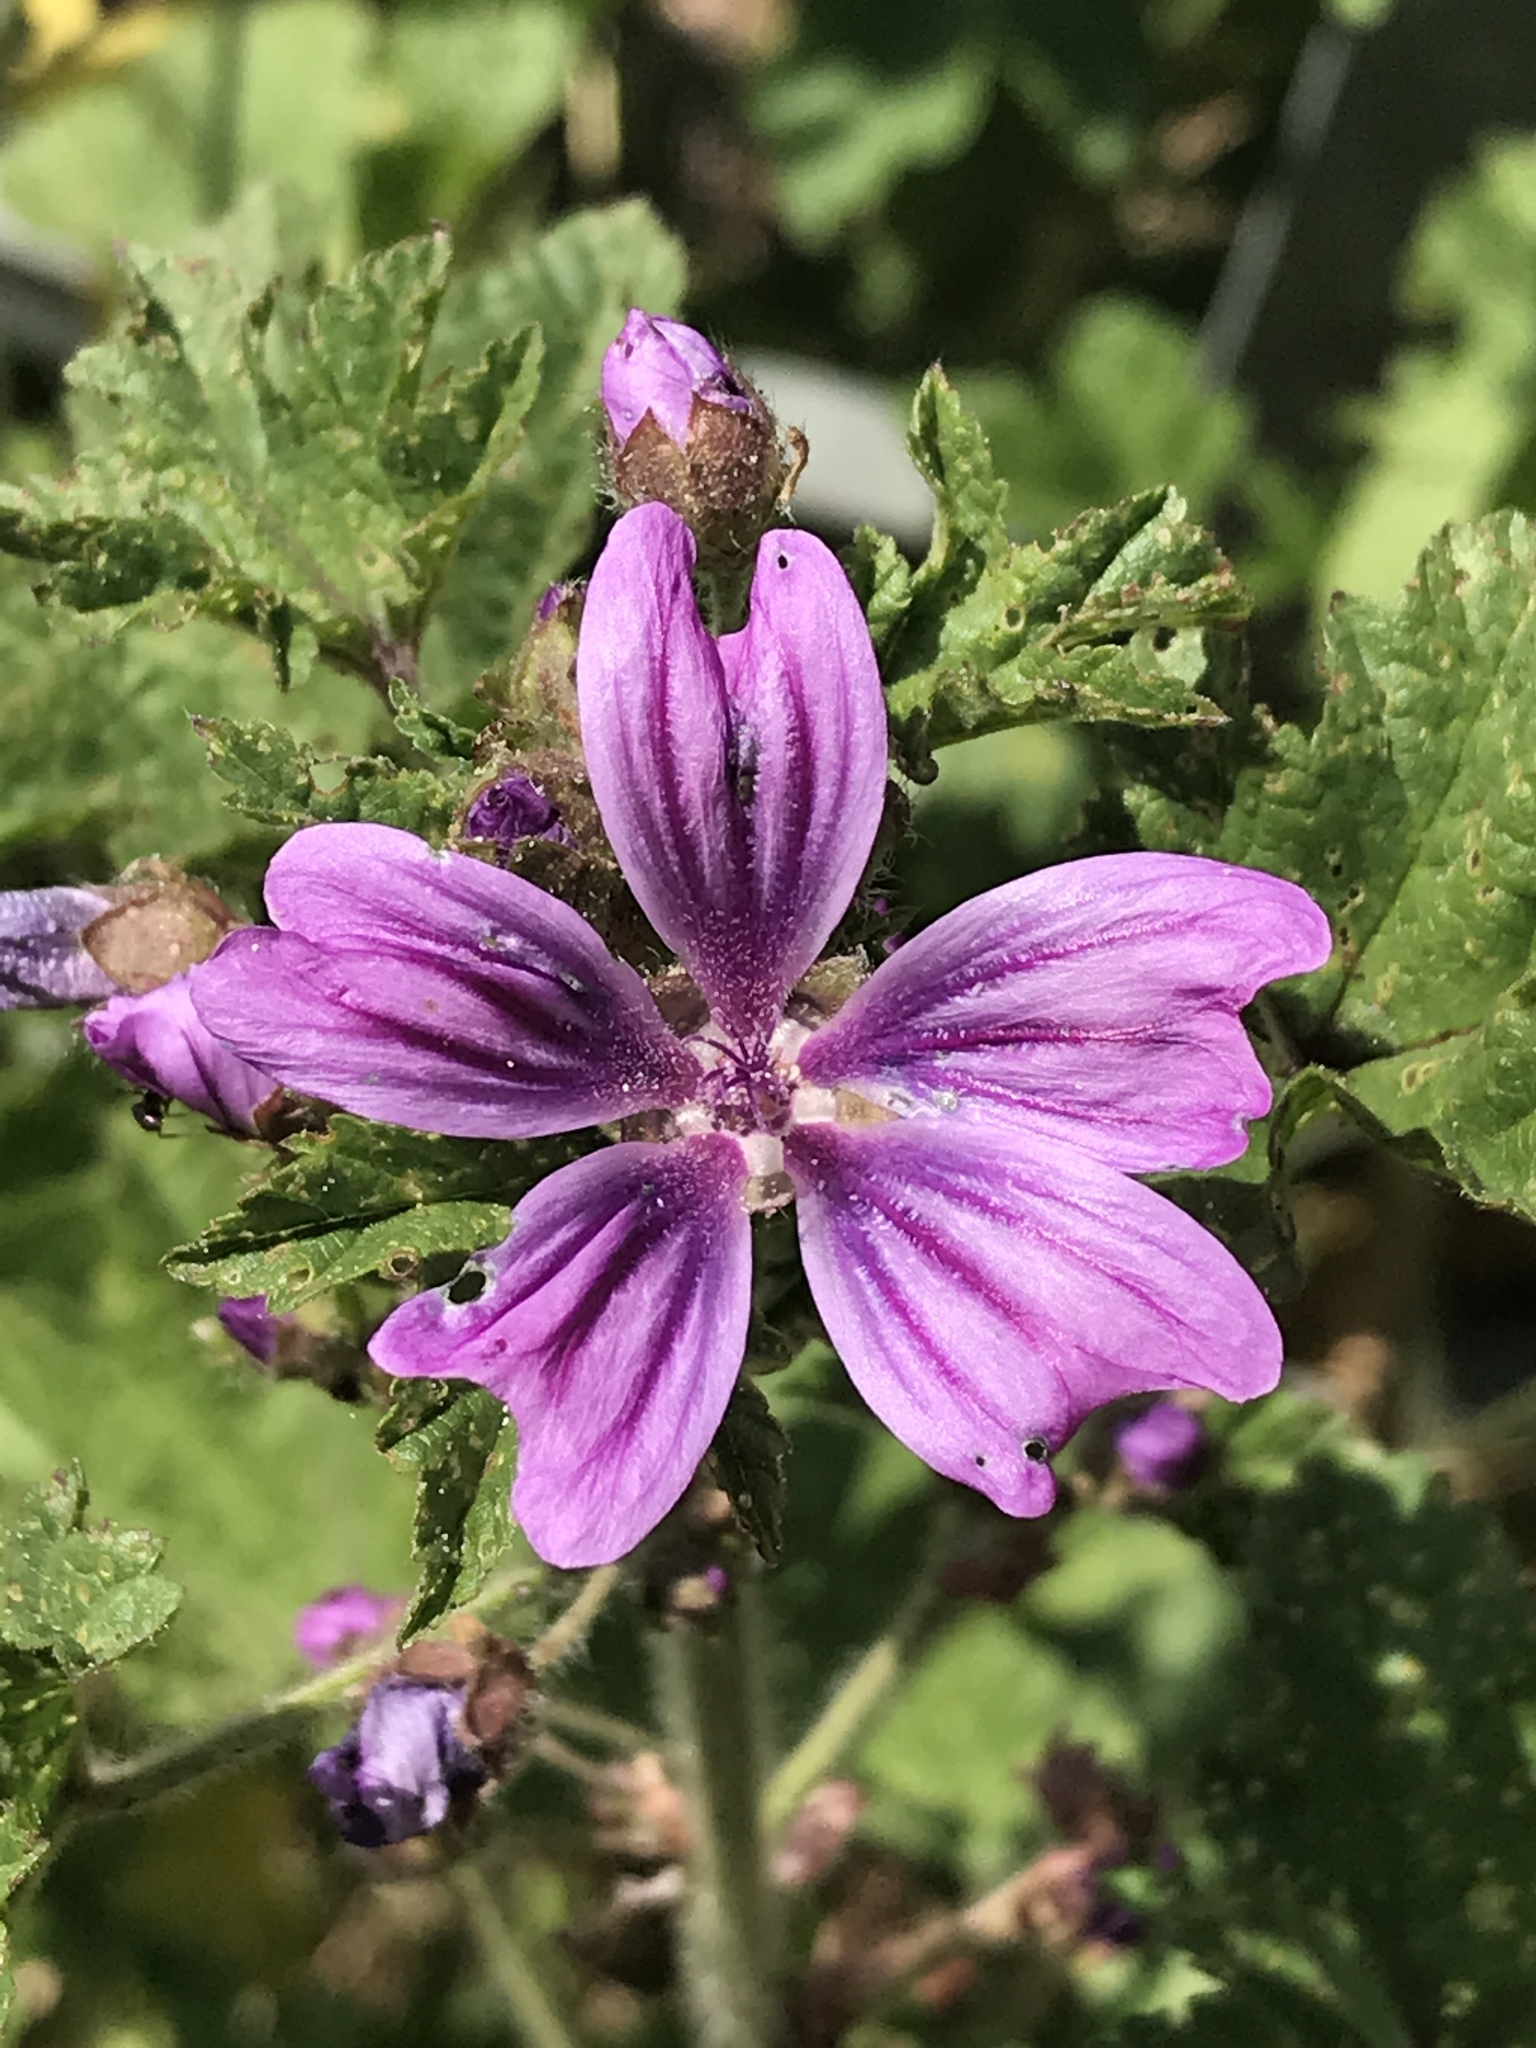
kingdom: Plantae
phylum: Tracheophyta
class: Magnoliopsida
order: Malvales
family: Malvaceae
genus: Malva
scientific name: Malva sylvestris
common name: Common mallow
